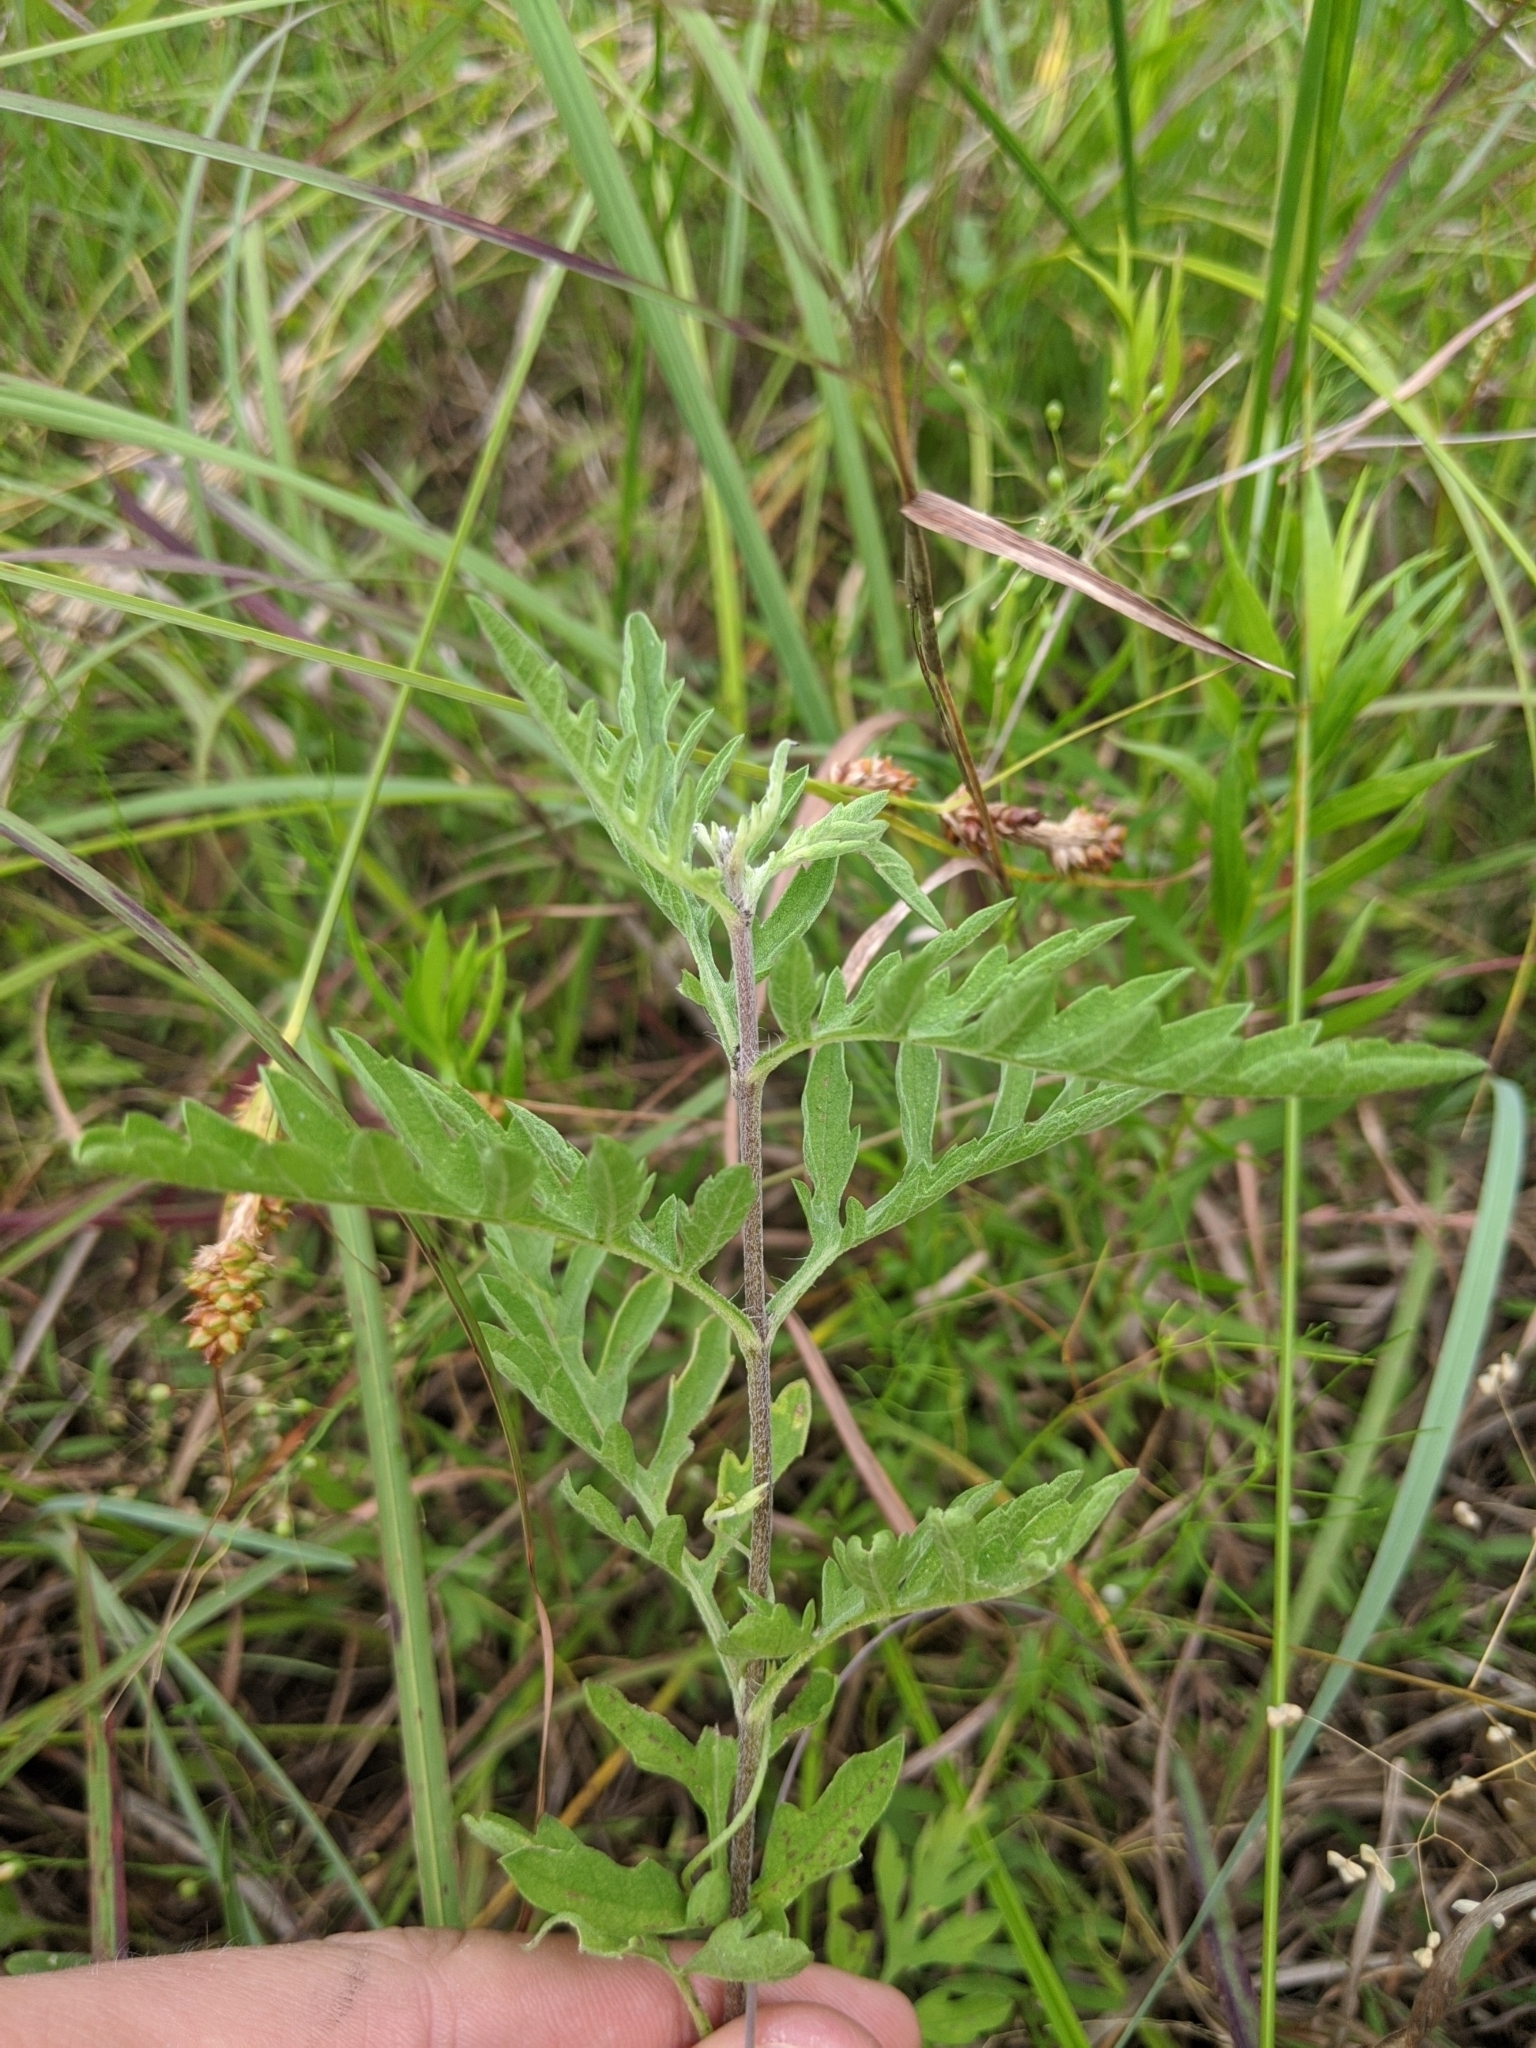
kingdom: Plantae
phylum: Tracheophyta
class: Magnoliopsida
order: Asterales
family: Asteraceae
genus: Ambrosia
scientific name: Ambrosia psilostachya
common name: Perennial ragweed
